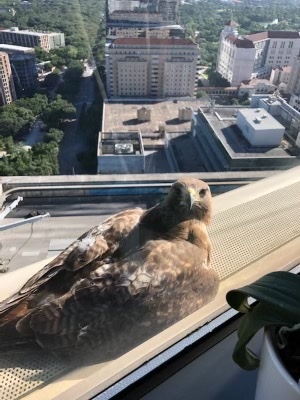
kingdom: Animalia
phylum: Chordata
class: Aves
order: Accipitriformes
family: Accipitridae
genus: Buteo
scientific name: Buteo jamaicensis
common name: Red-tailed hawk
